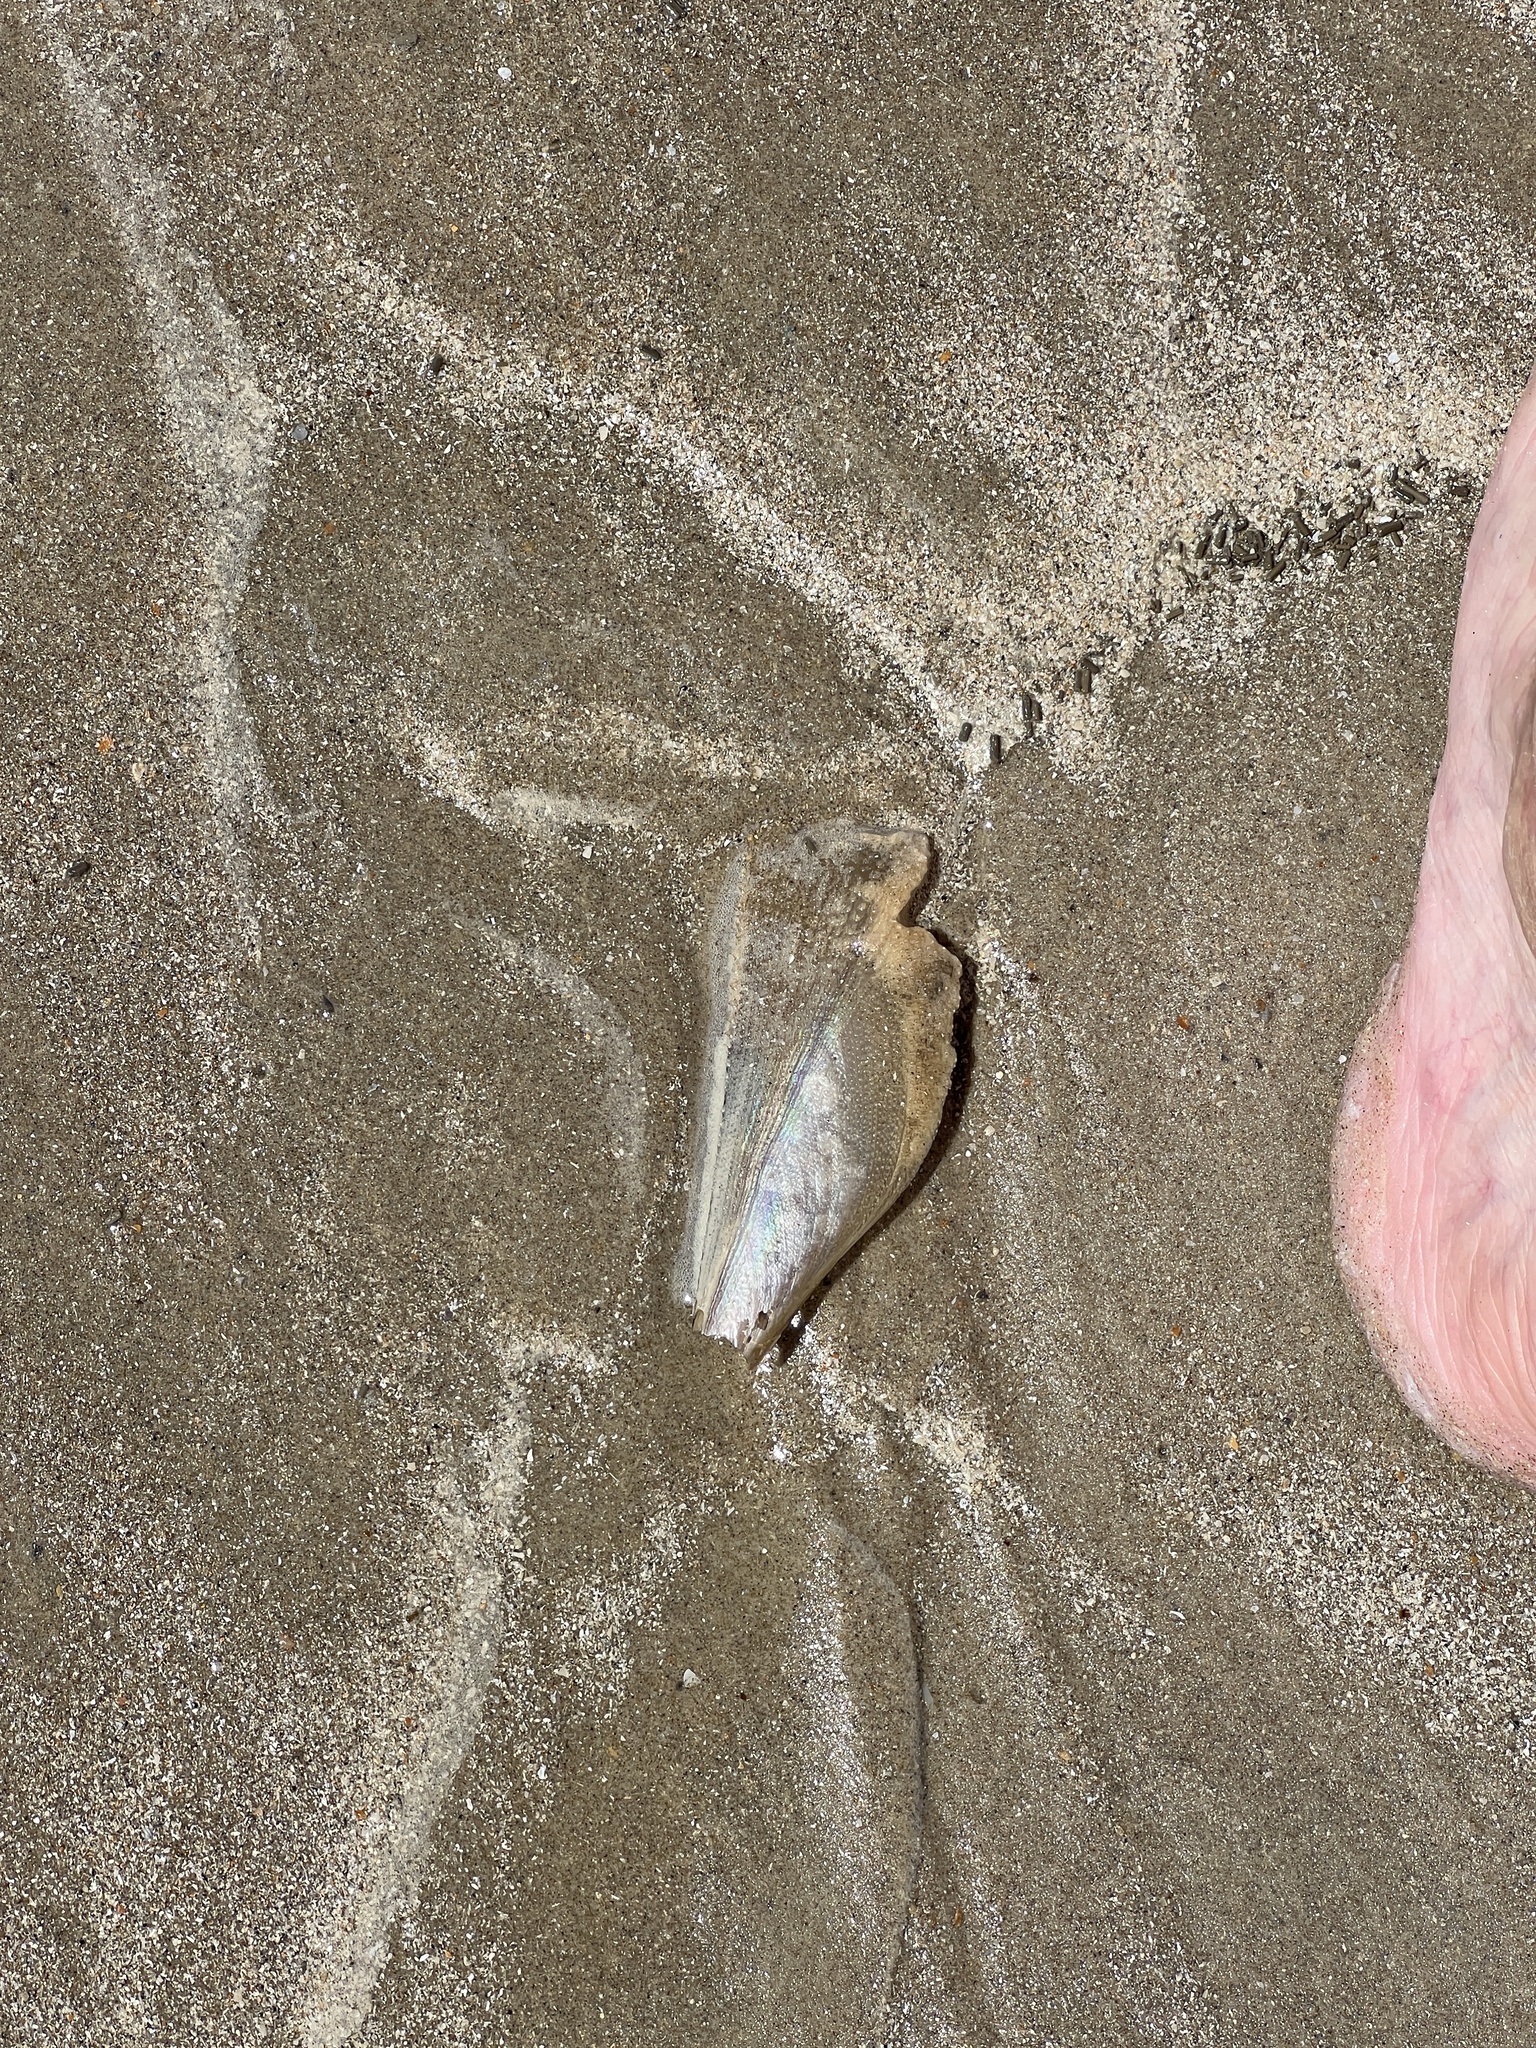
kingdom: Animalia
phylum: Mollusca
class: Bivalvia
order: Ostreida
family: Pinnidae
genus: Atrina
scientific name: Atrina serrata
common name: Saw-toothed penshell
